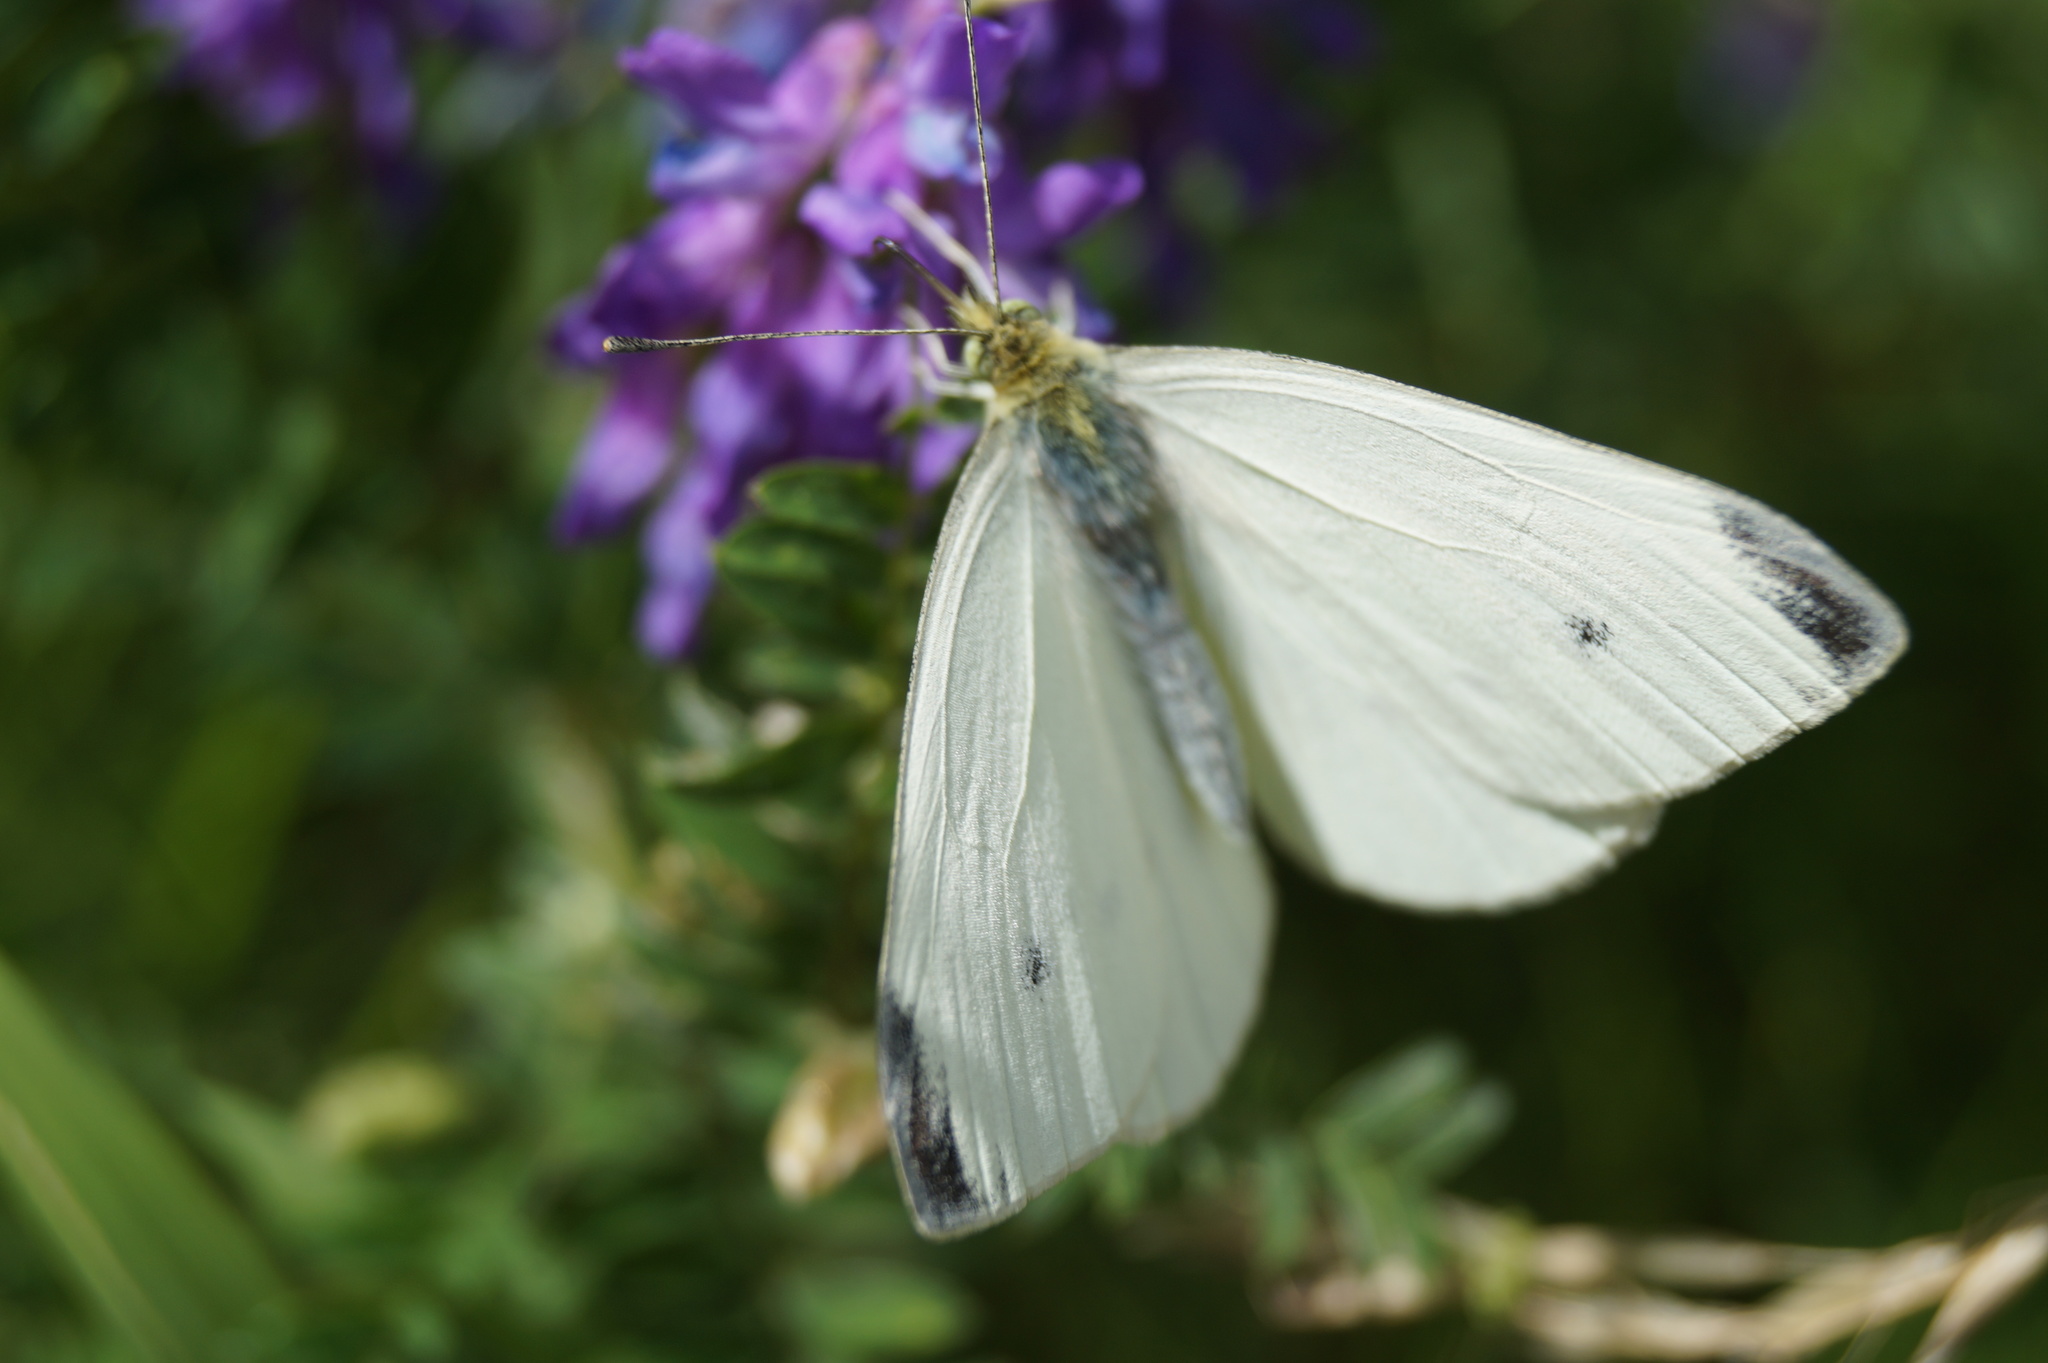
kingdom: Animalia
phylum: Arthropoda
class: Insecta
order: Lepidoptera
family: Pieridae
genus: Pieris
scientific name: Pieris rapae
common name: Small white
